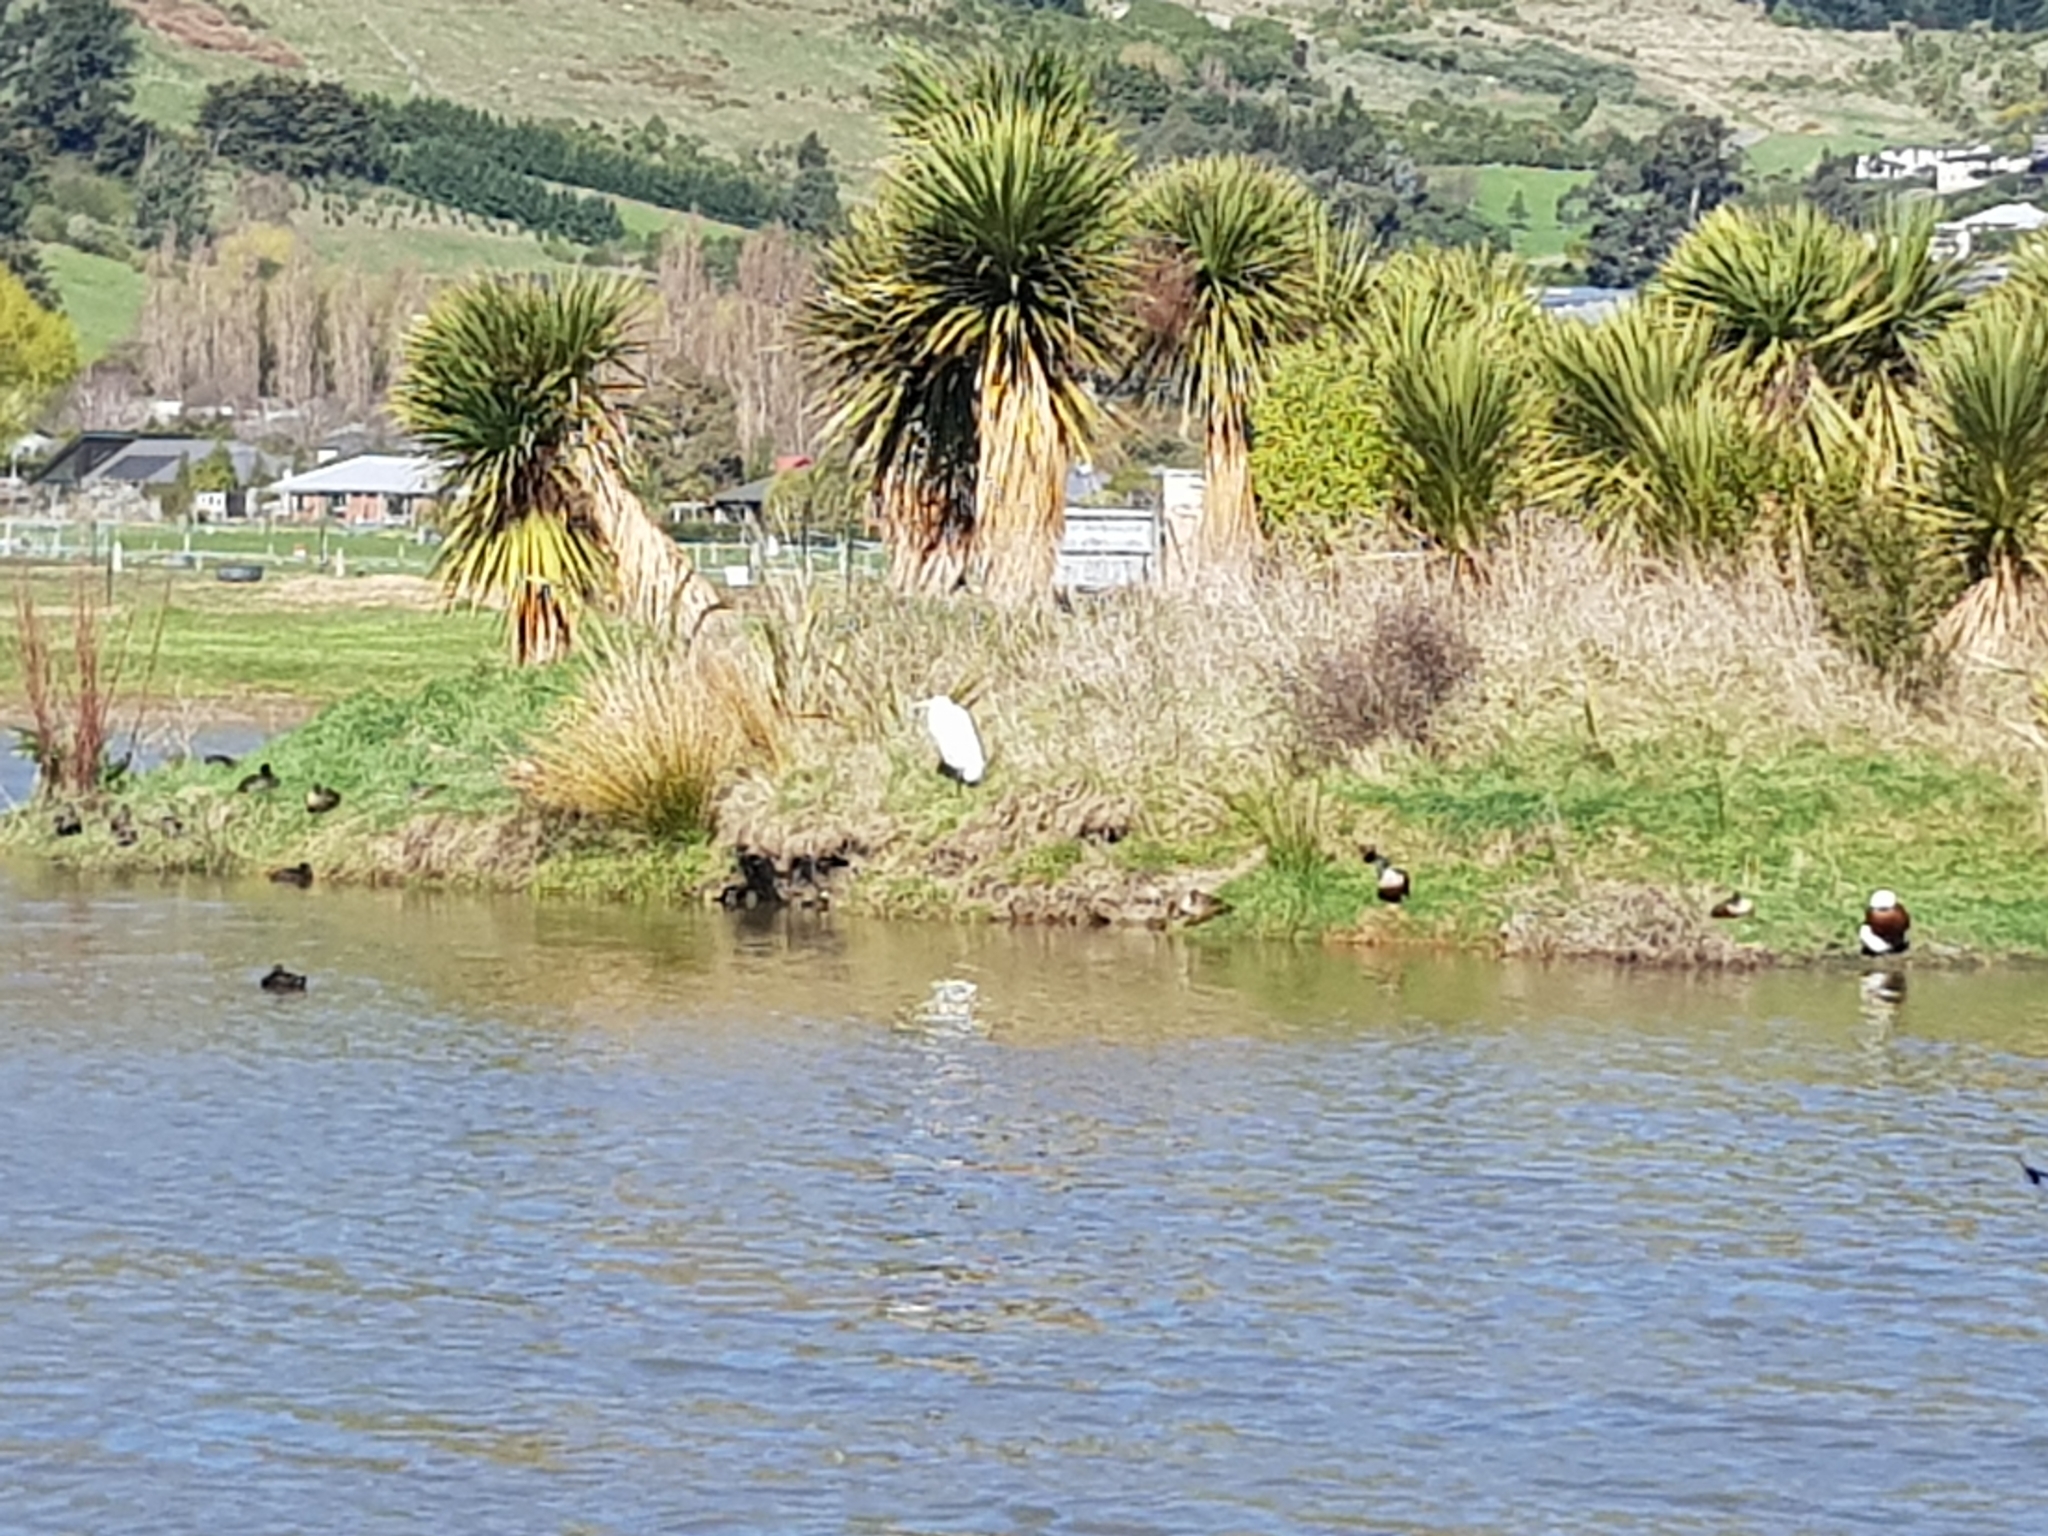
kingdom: Animalia
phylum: Chordata
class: Aves
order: Pelecaniformes
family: Ardeidae
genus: Ardea
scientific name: Ardea modesta
